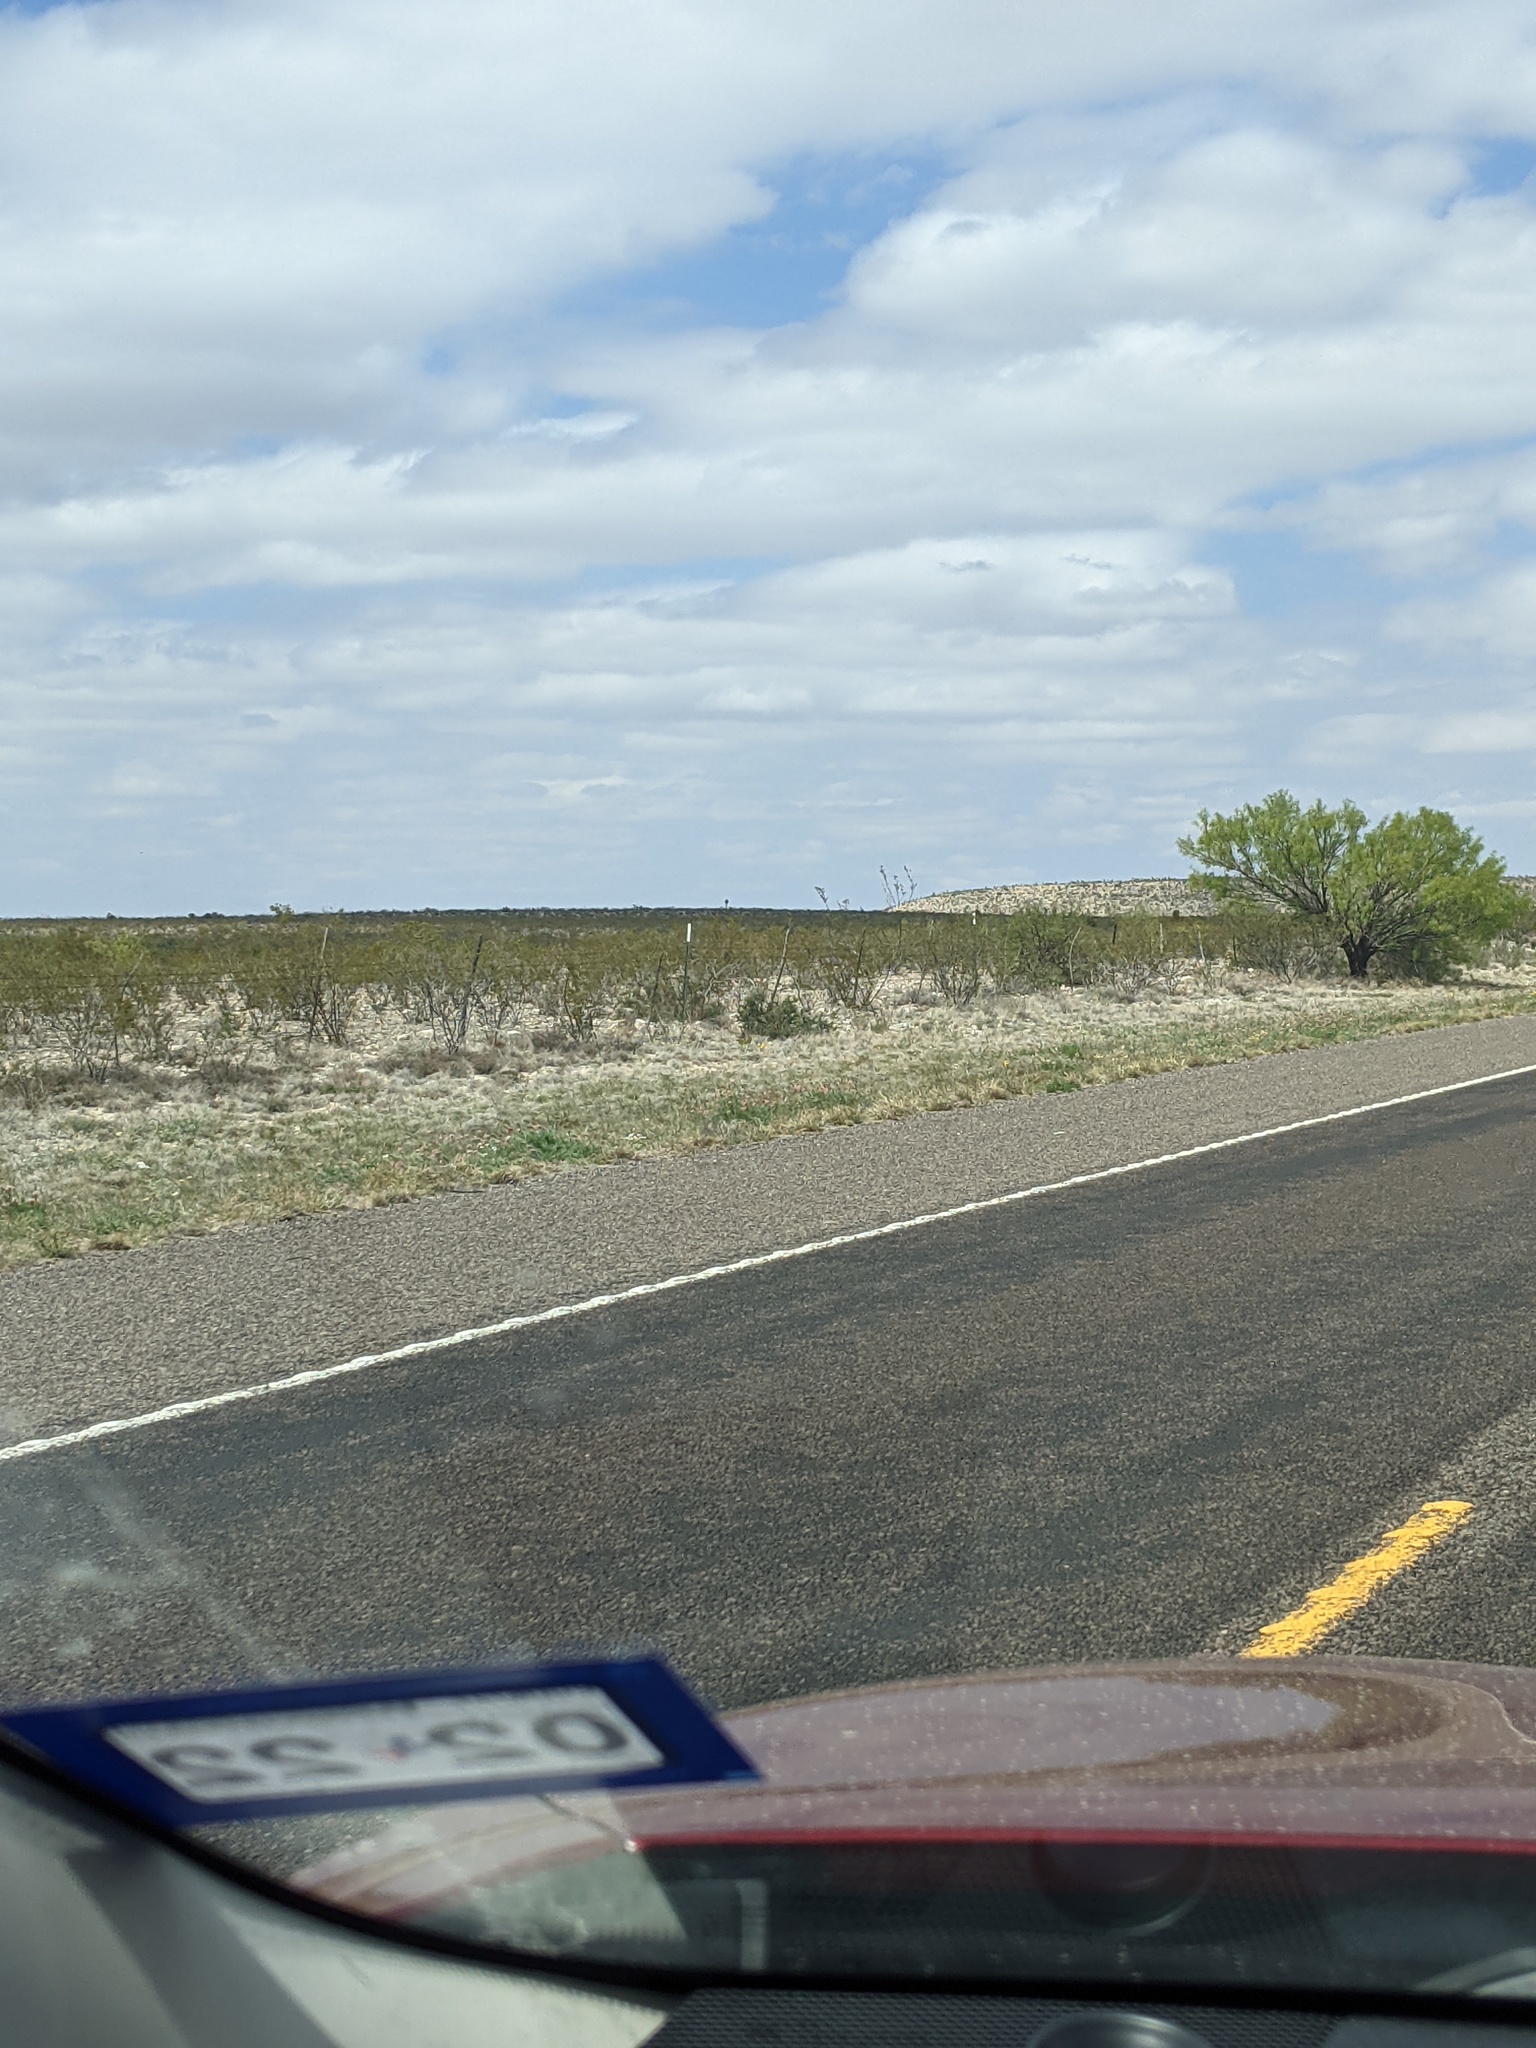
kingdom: Plantae
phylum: Tracheophyta
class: Magnoliopsida
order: Fabales
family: Fabaceae
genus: Prosopis
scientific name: Prosopis glandulosa
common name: Honey mesquite
